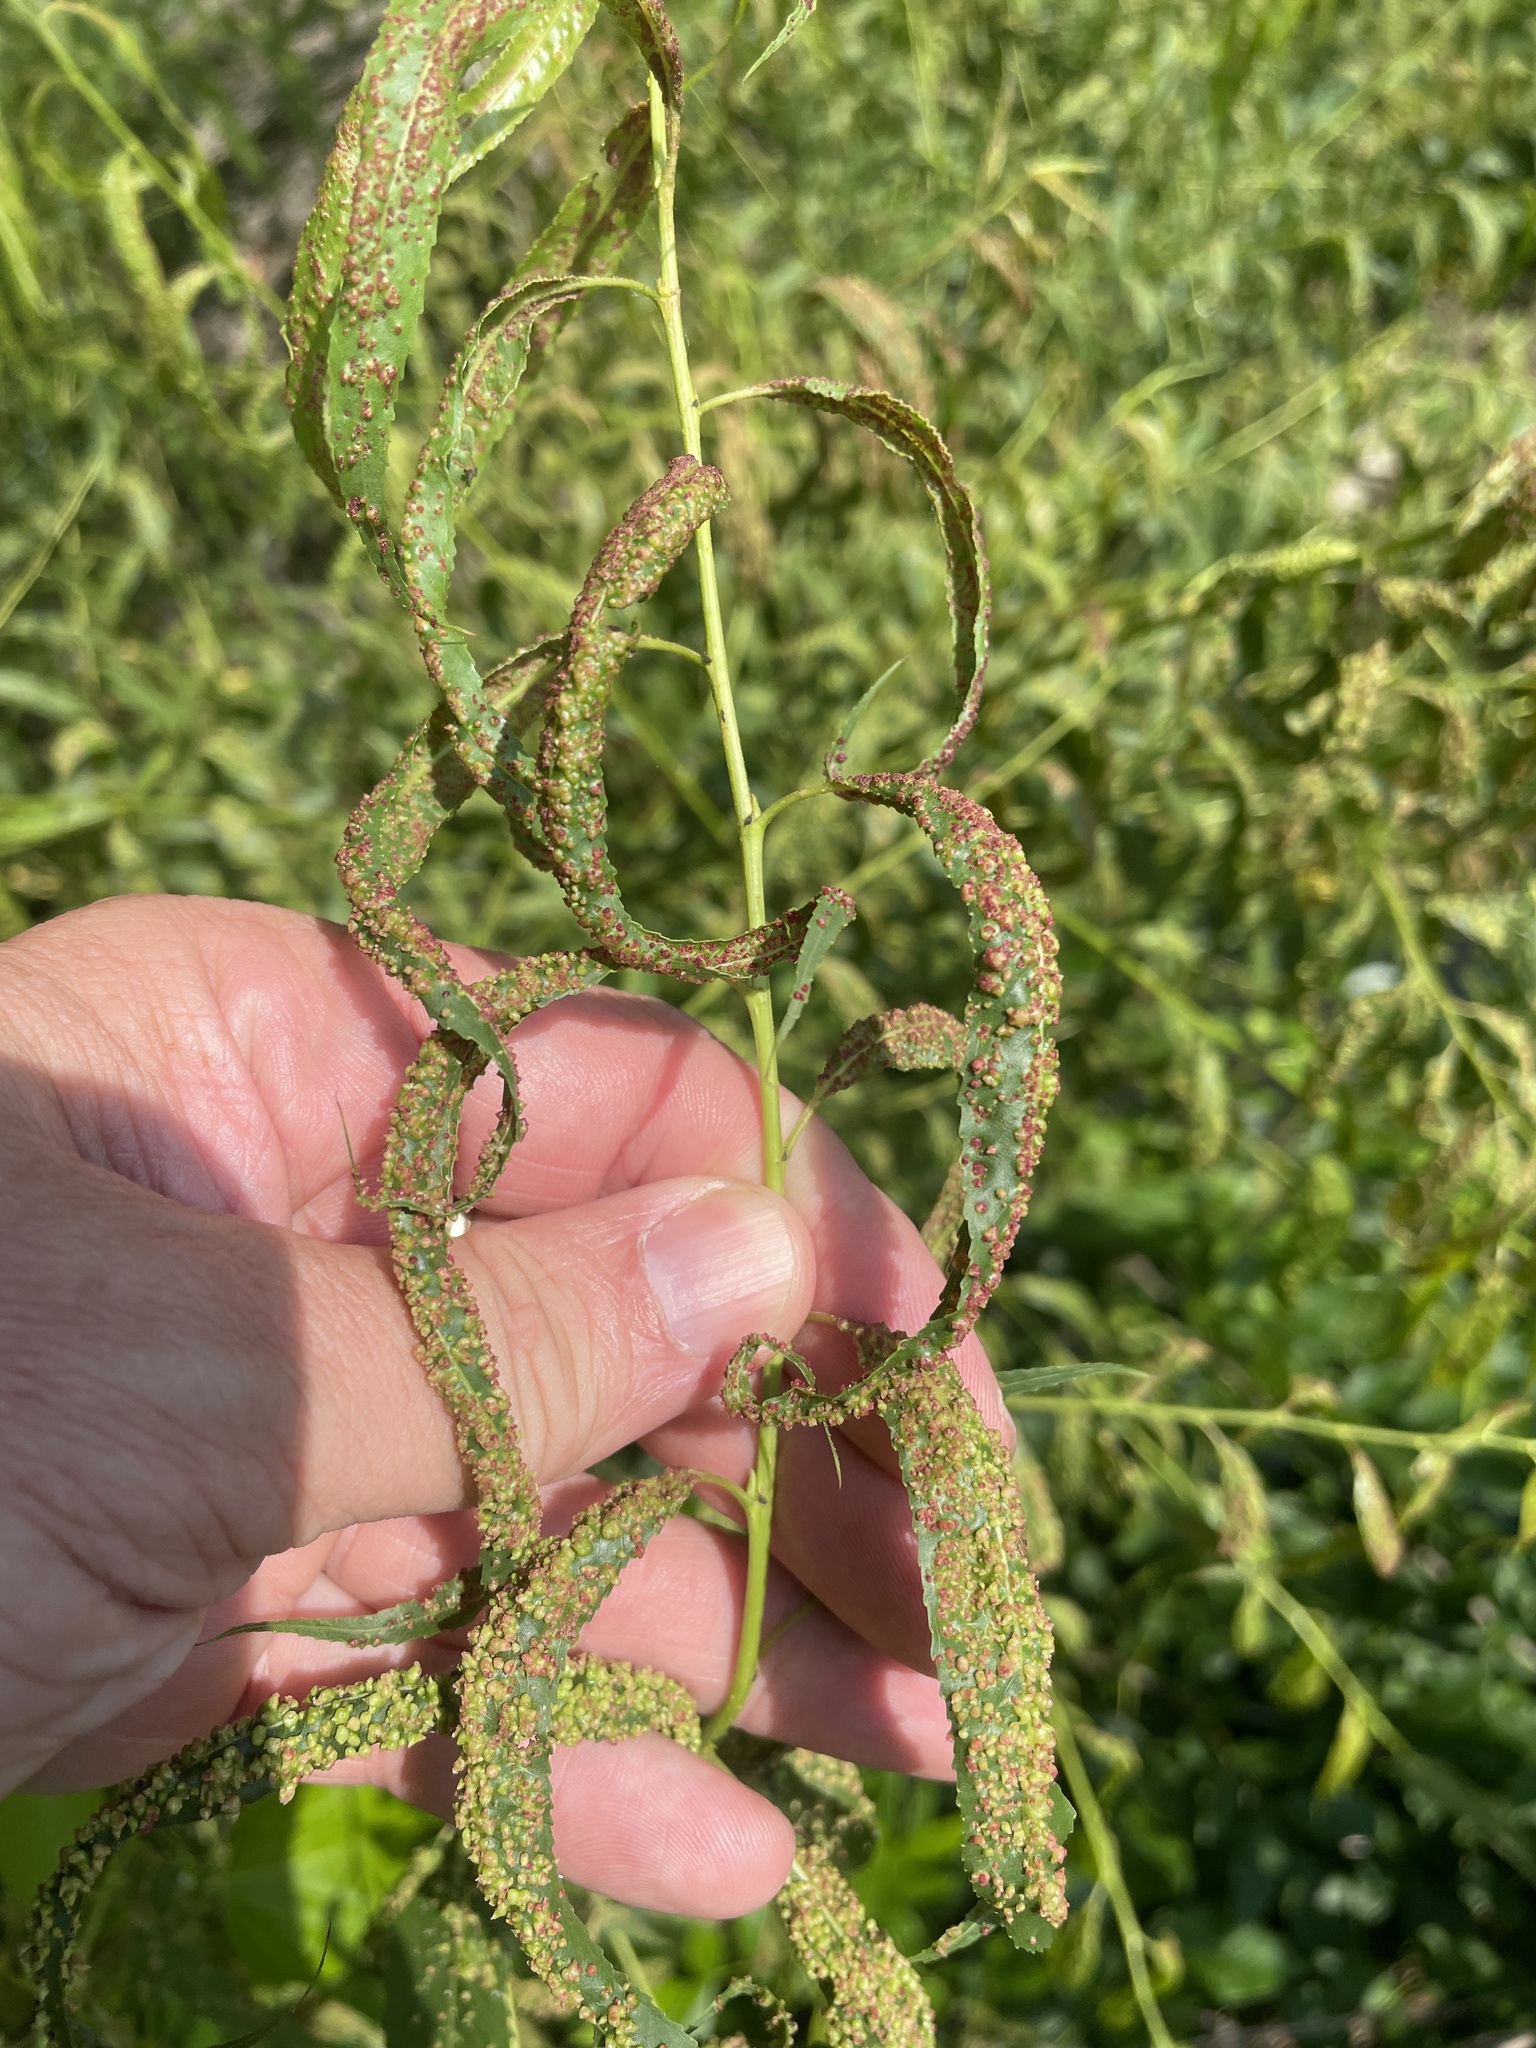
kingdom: Animalia
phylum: Arthropoda
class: Arachnida
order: Trombidiformes
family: Eriophyidae
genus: Aculus
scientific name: Aculus tetanothrix
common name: Willow bead gall mite
